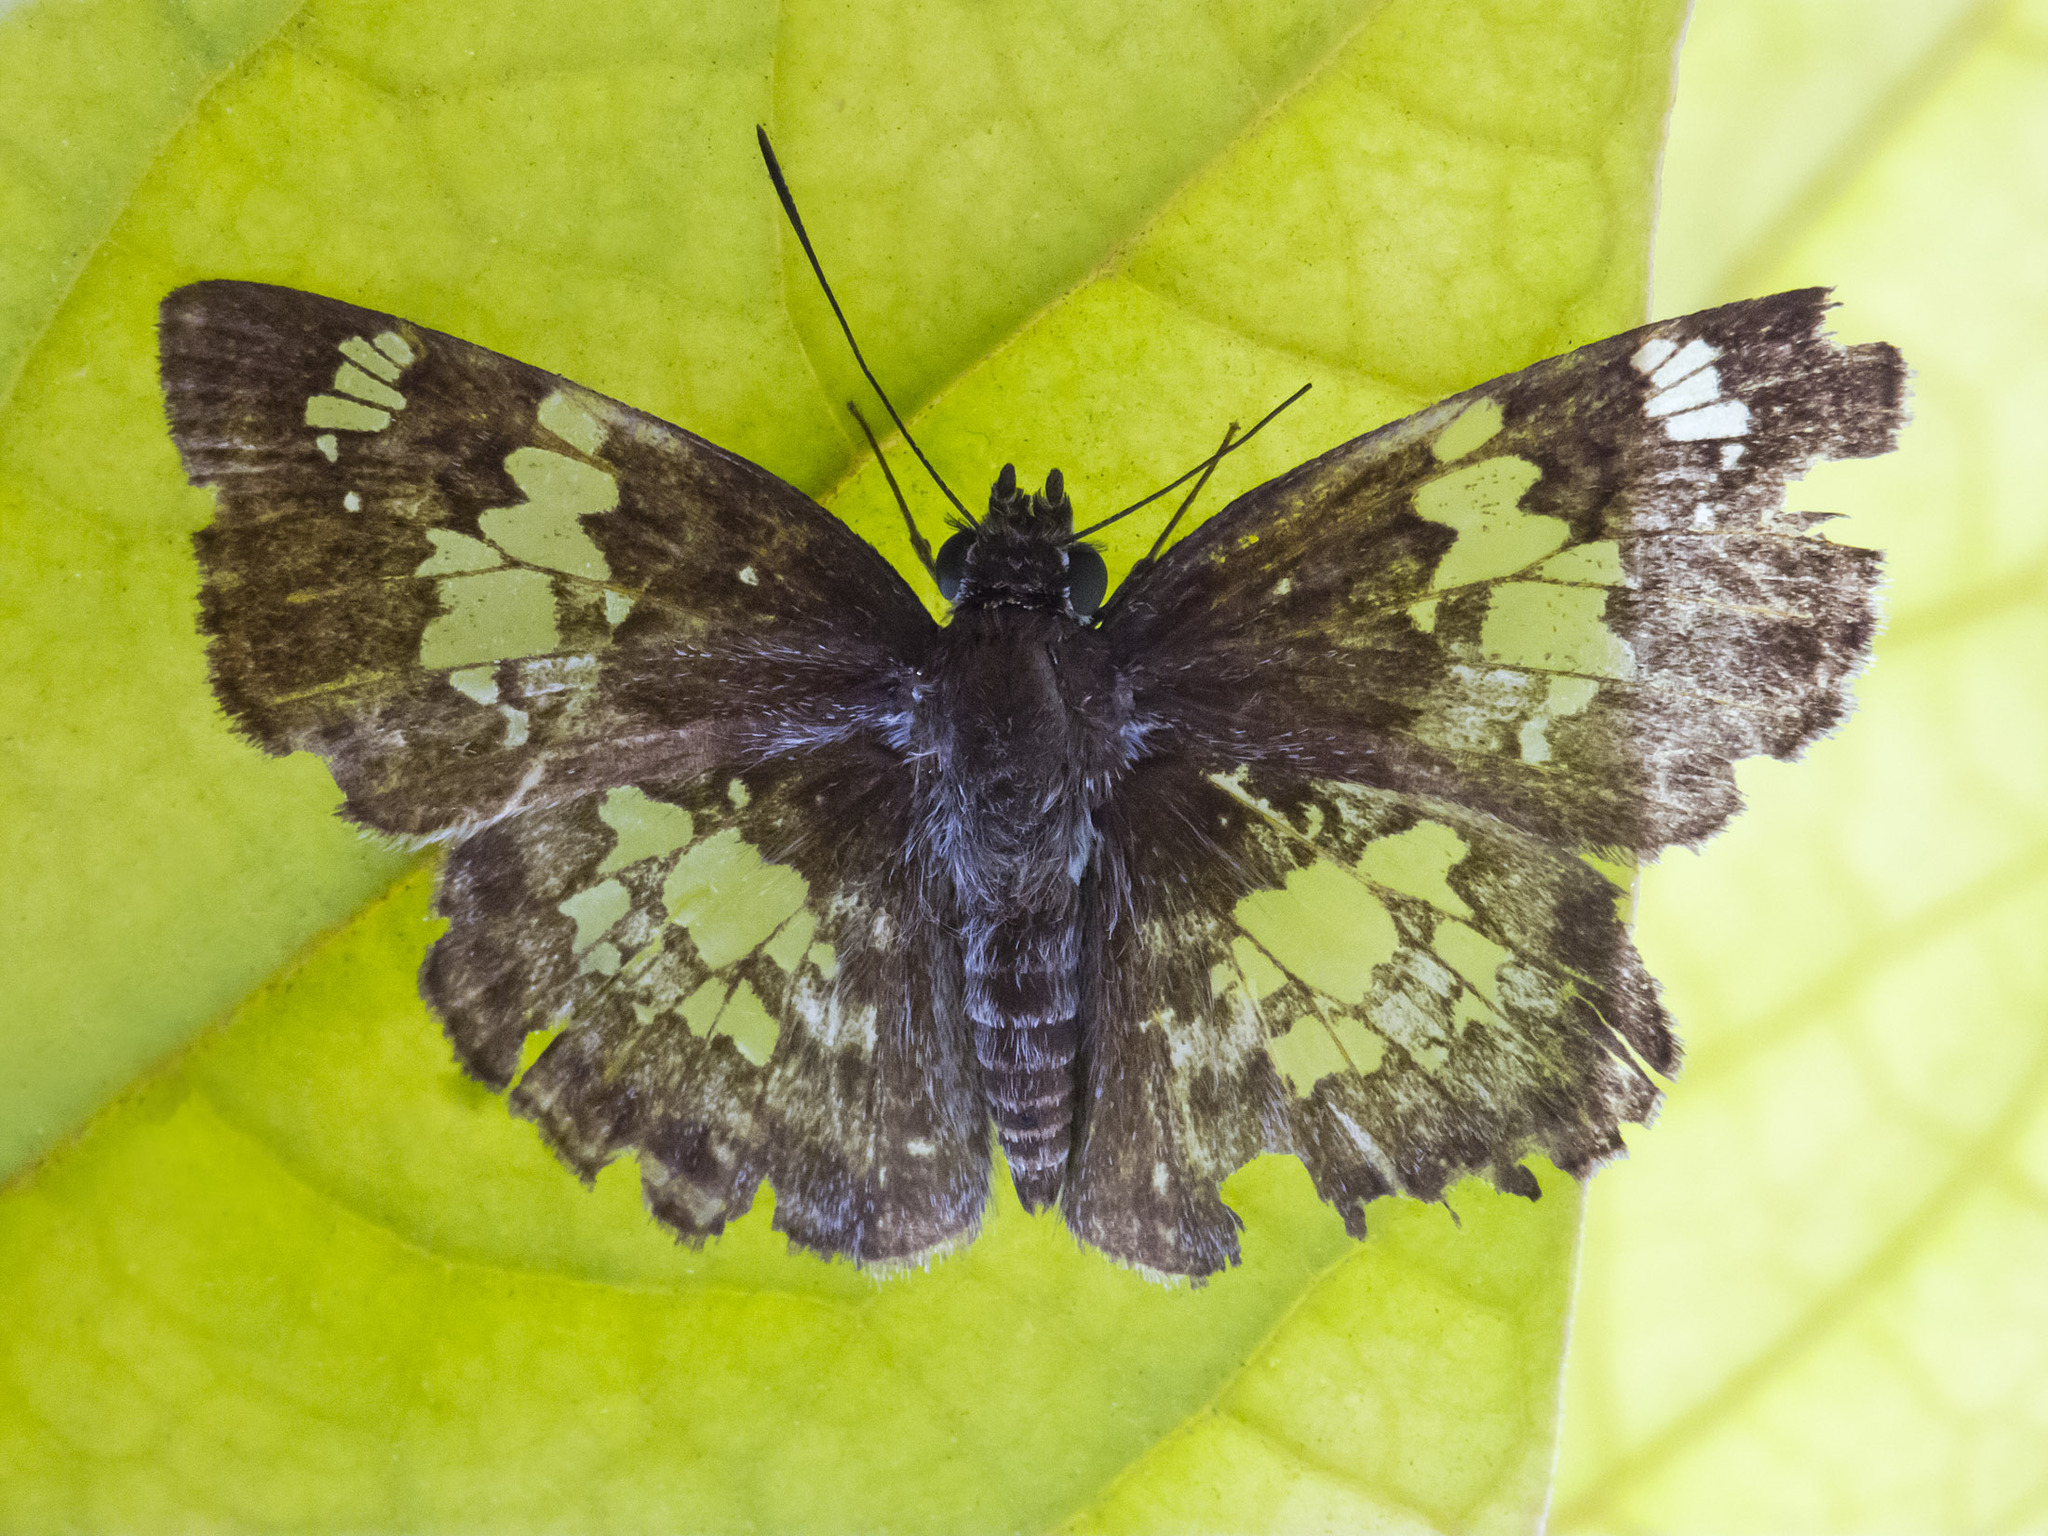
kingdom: Animalia
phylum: Arthropoda
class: Insecta
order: Lepidoptera
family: Hesperiidae
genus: Xenophanes
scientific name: Xenophanes tryxus
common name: Glassy-winged skipper
